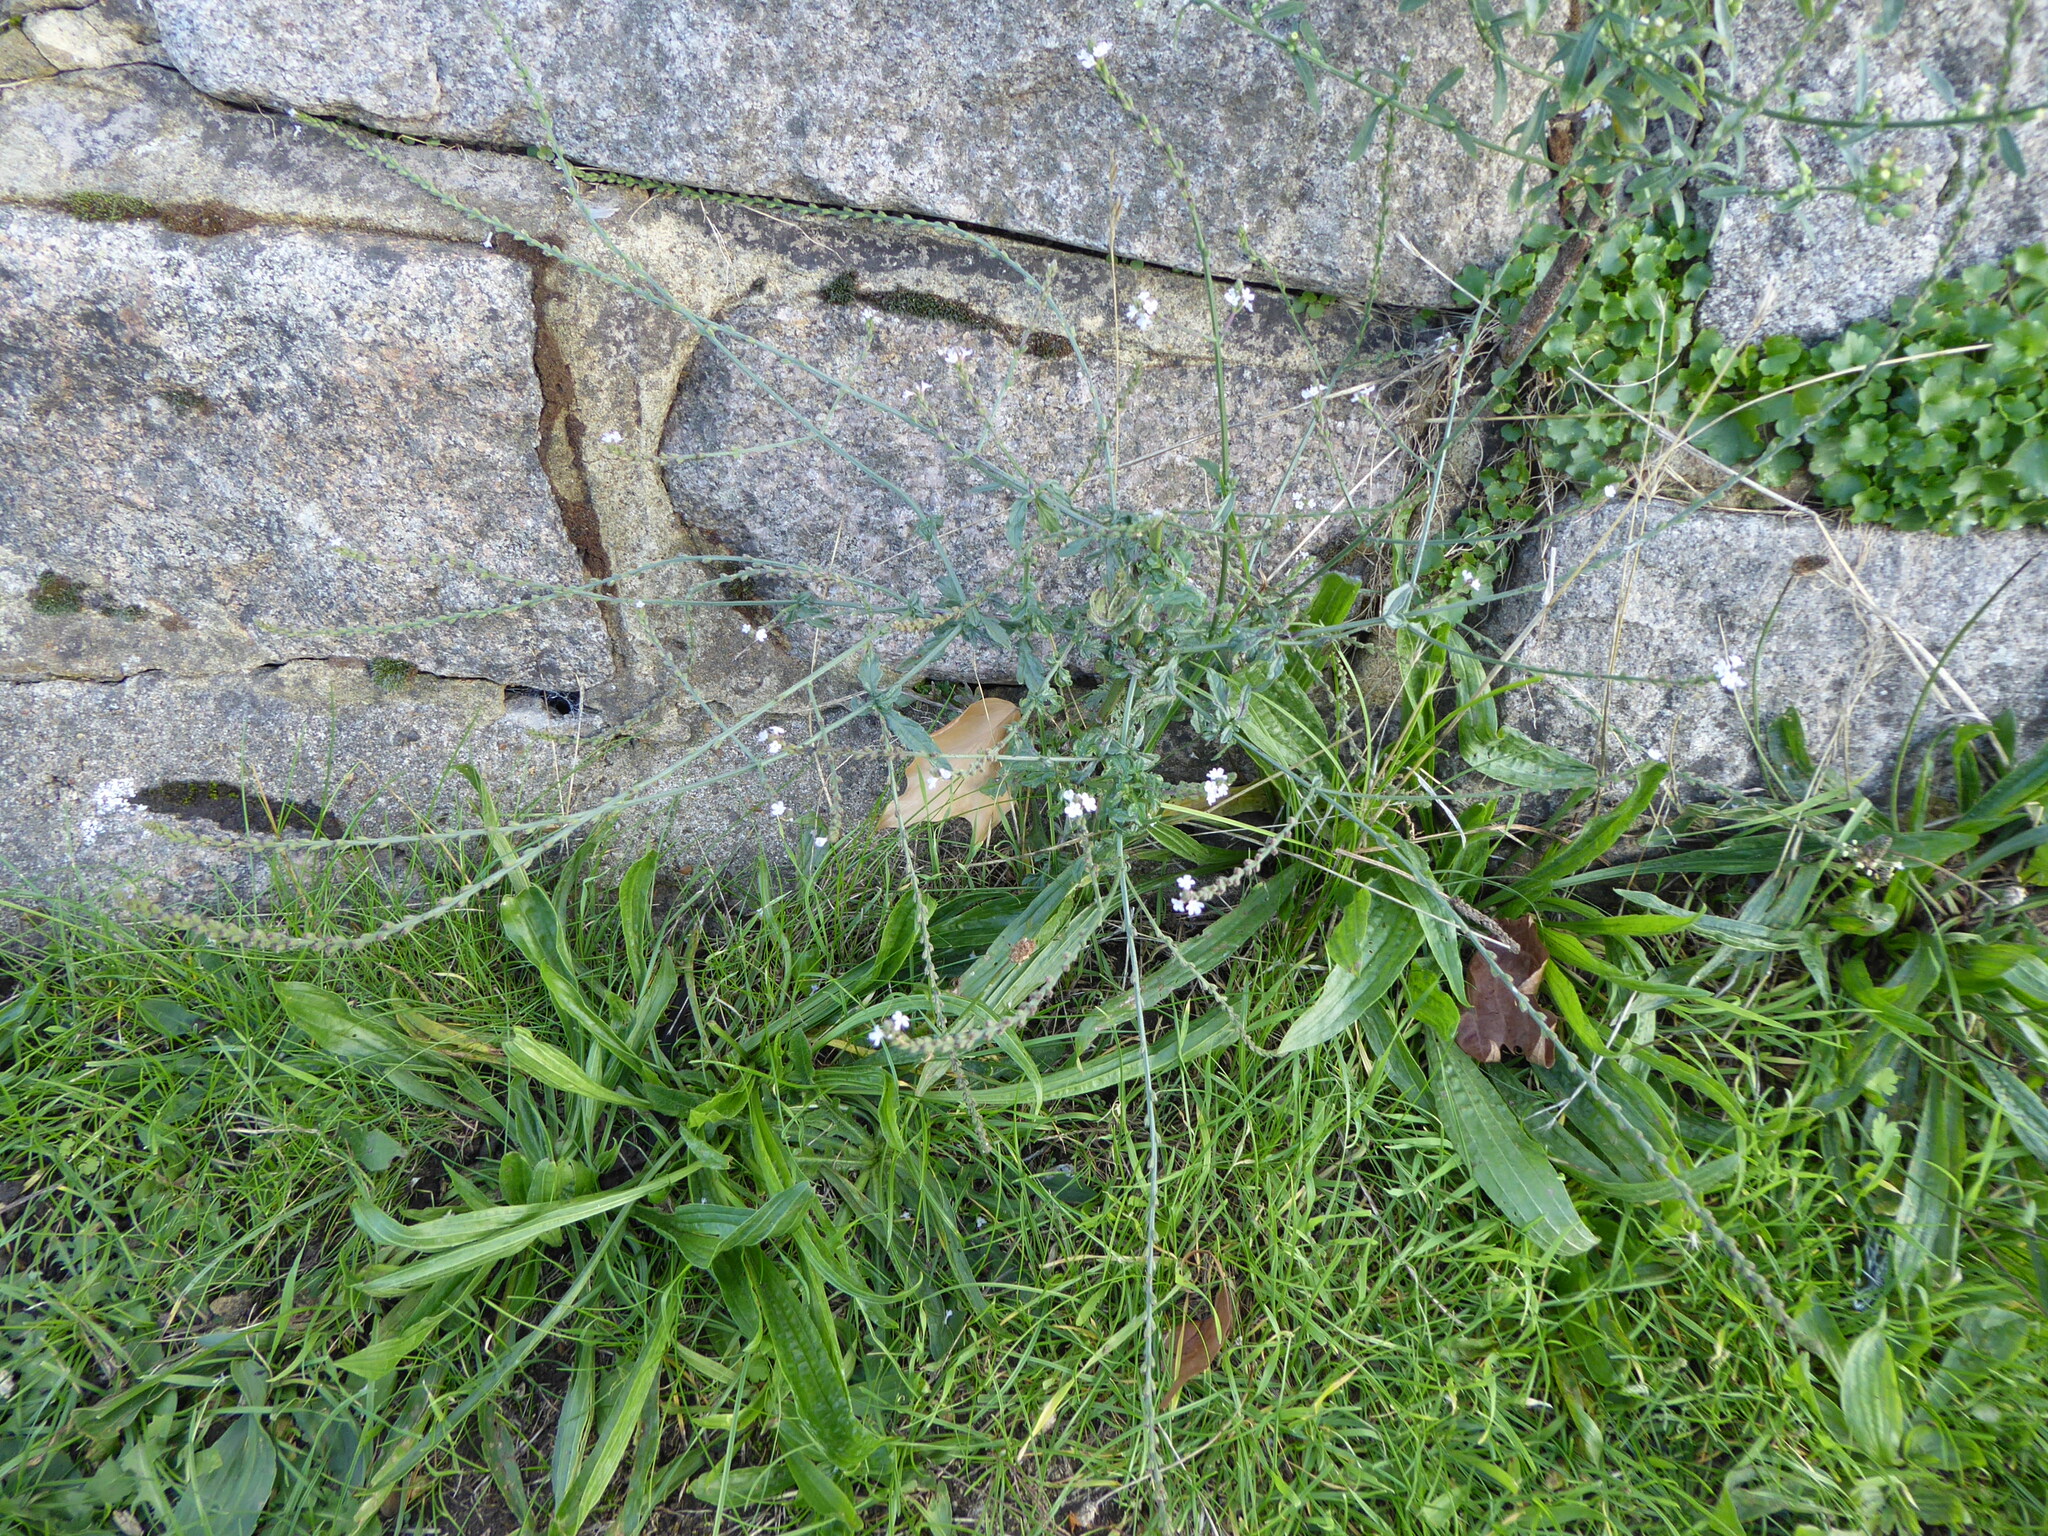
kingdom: Plantae
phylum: Tracheophyta
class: Magnoliopsida
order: Lamiales
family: Verbenaceae
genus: Verbena
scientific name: Verbena officinalis
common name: Vervain
